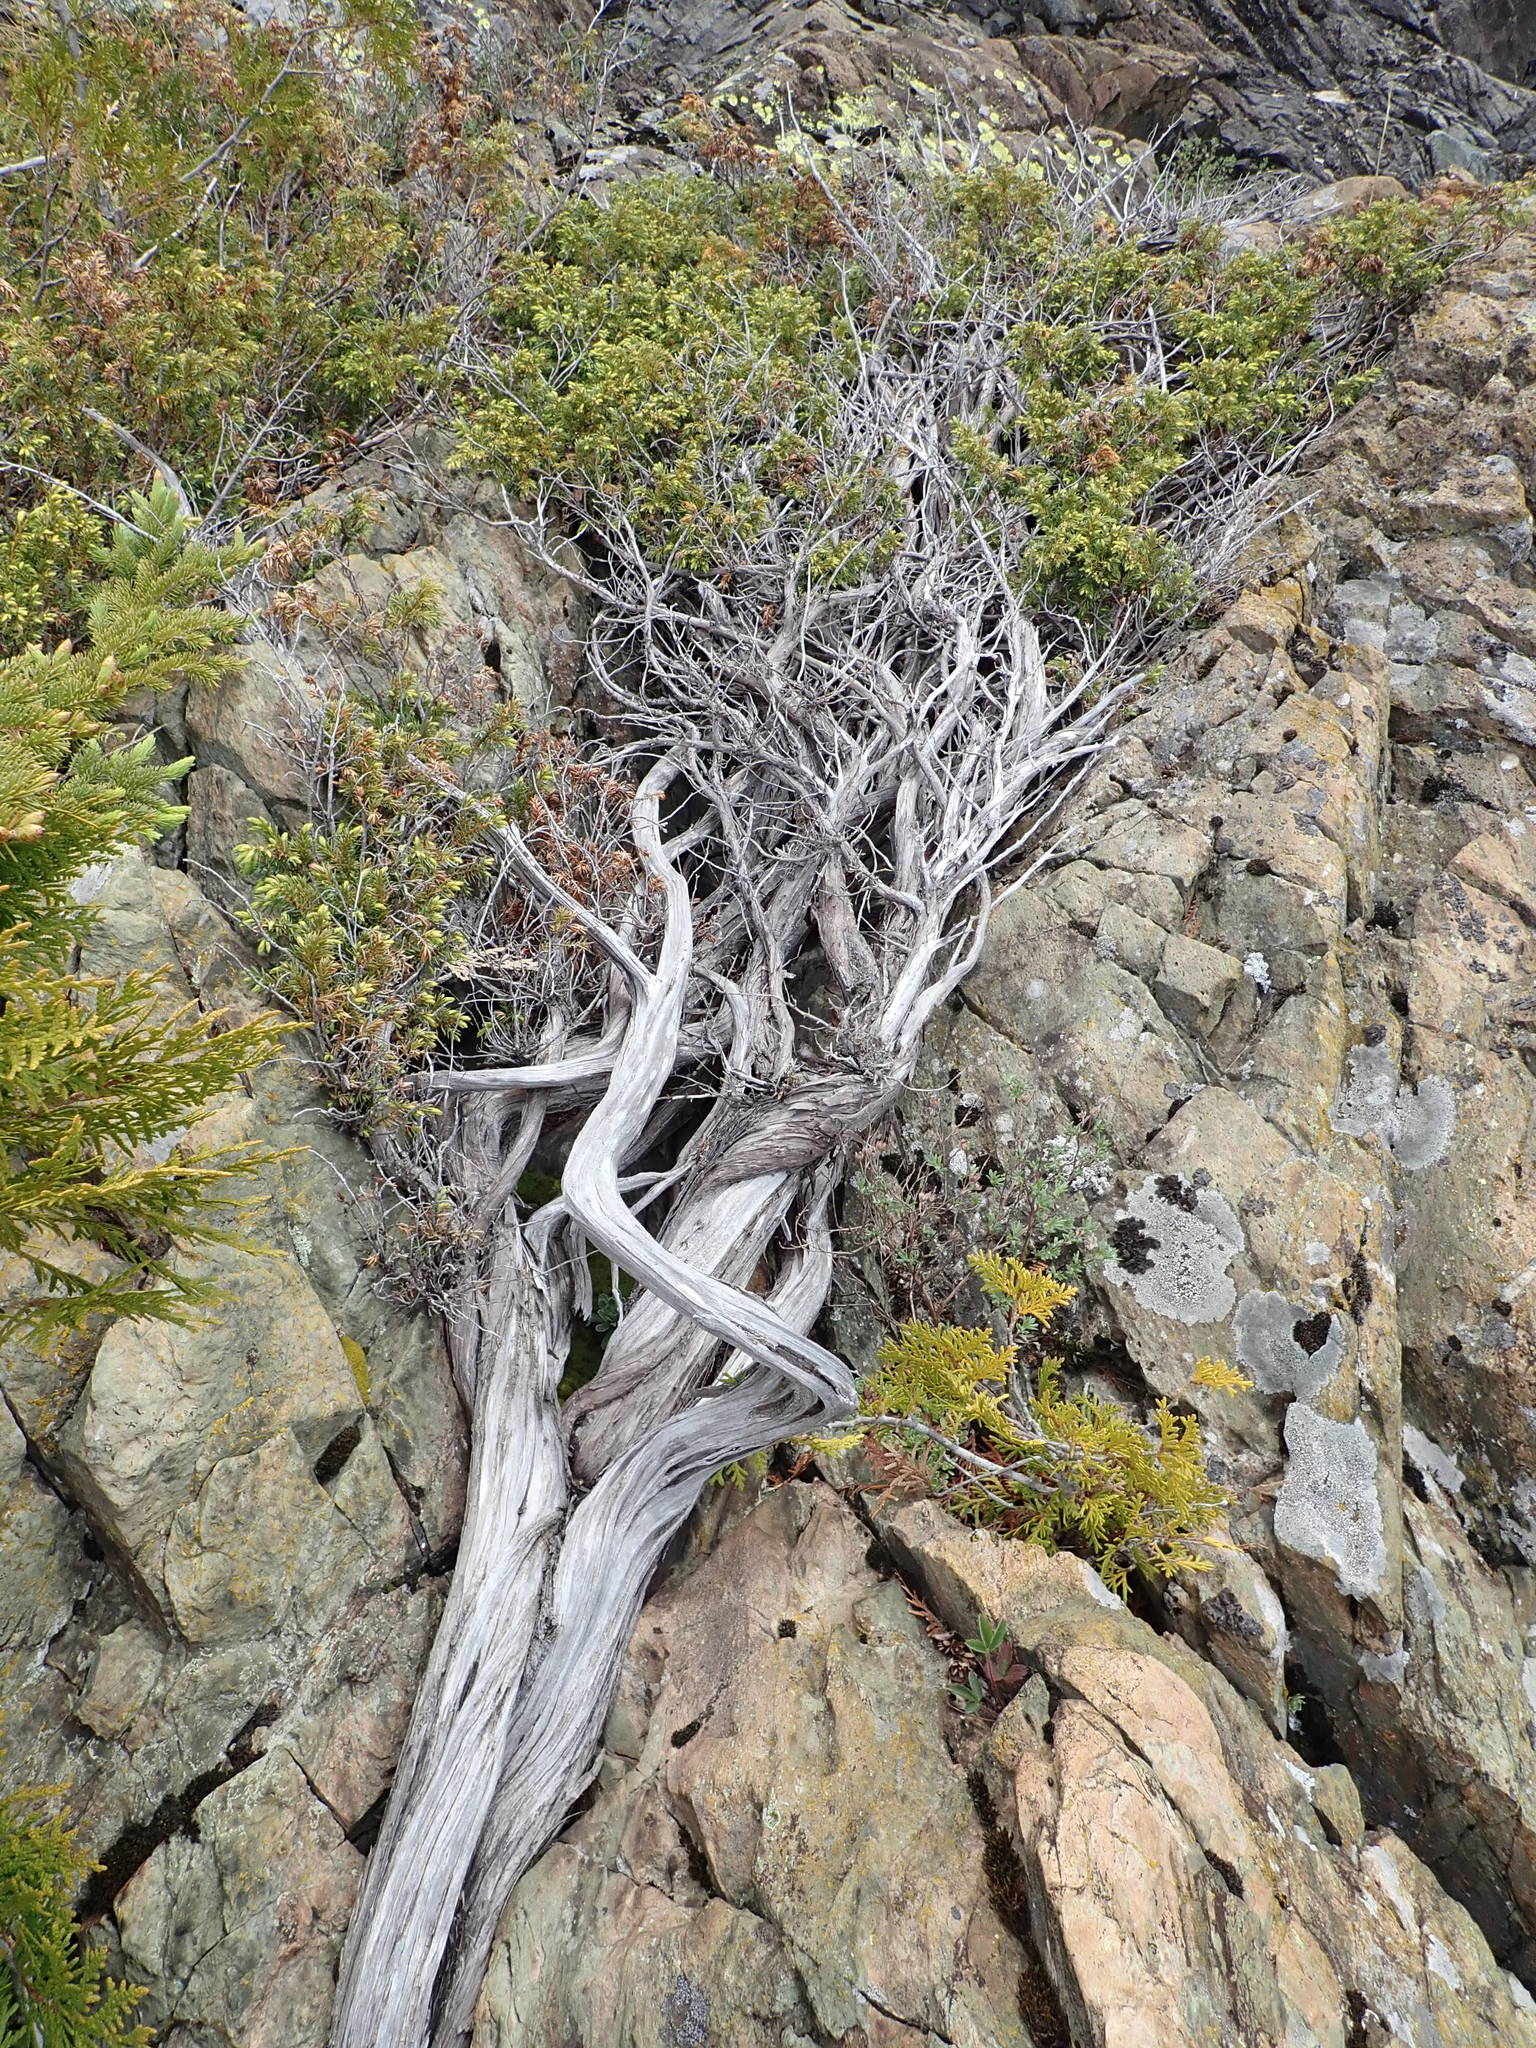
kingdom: Plantae
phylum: Tracheophyta
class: Pinopsida
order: Pinales
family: Cupressaceae
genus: Thuja
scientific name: Thuja occidentalis
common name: Northern white-cedar
